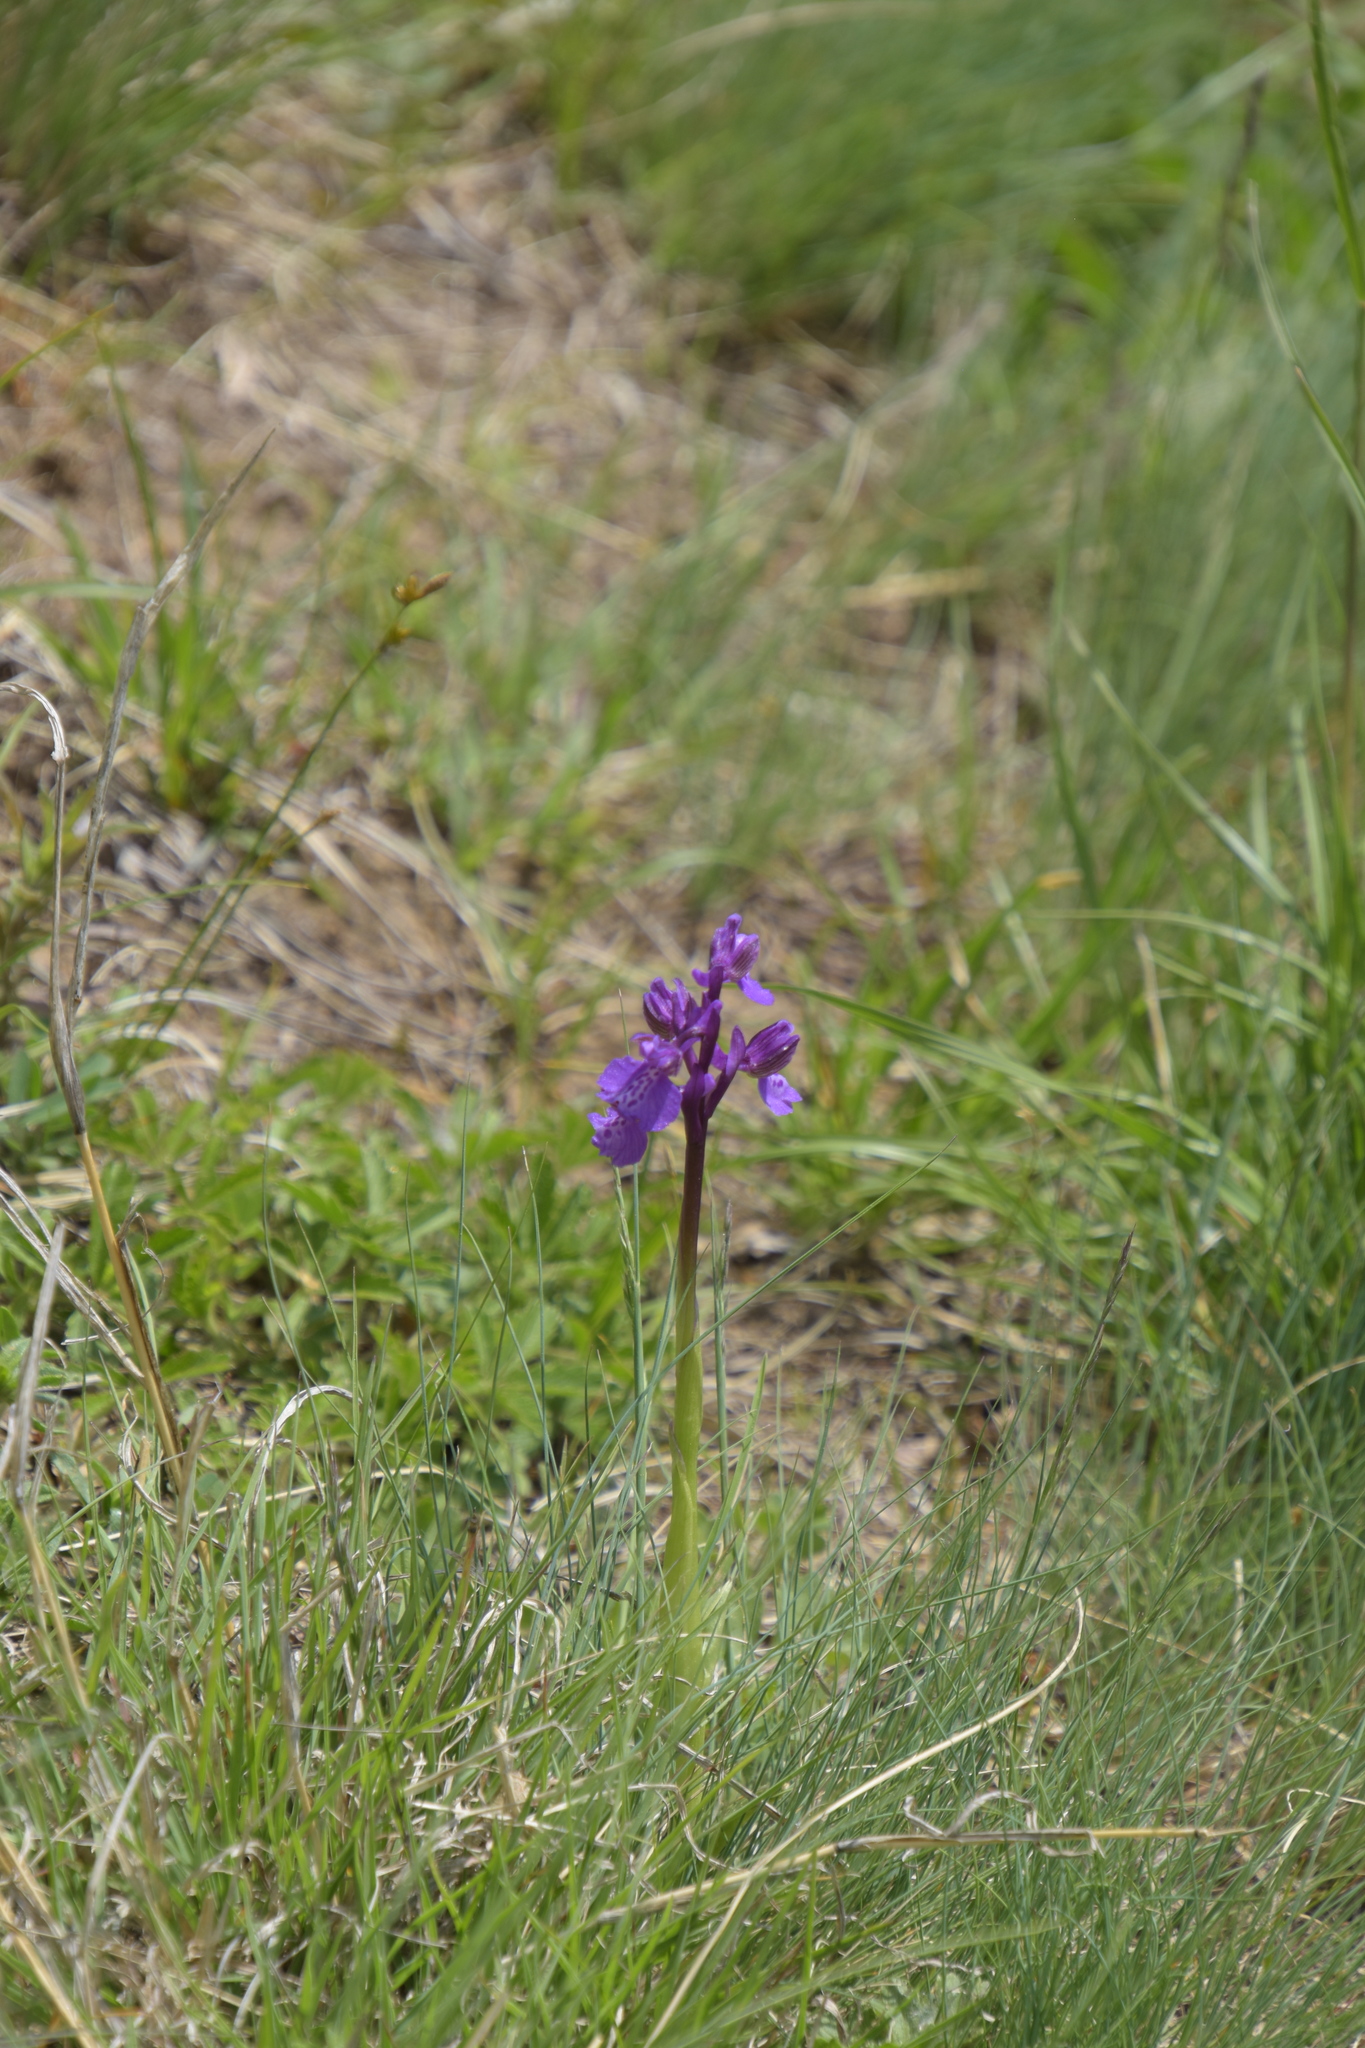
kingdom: Plantae
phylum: Tracheophyta
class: Liliopsida
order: Asparagales
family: Orchidaceae
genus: Anacamptis
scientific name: Anacamptis morio
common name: Green-winged orchid
